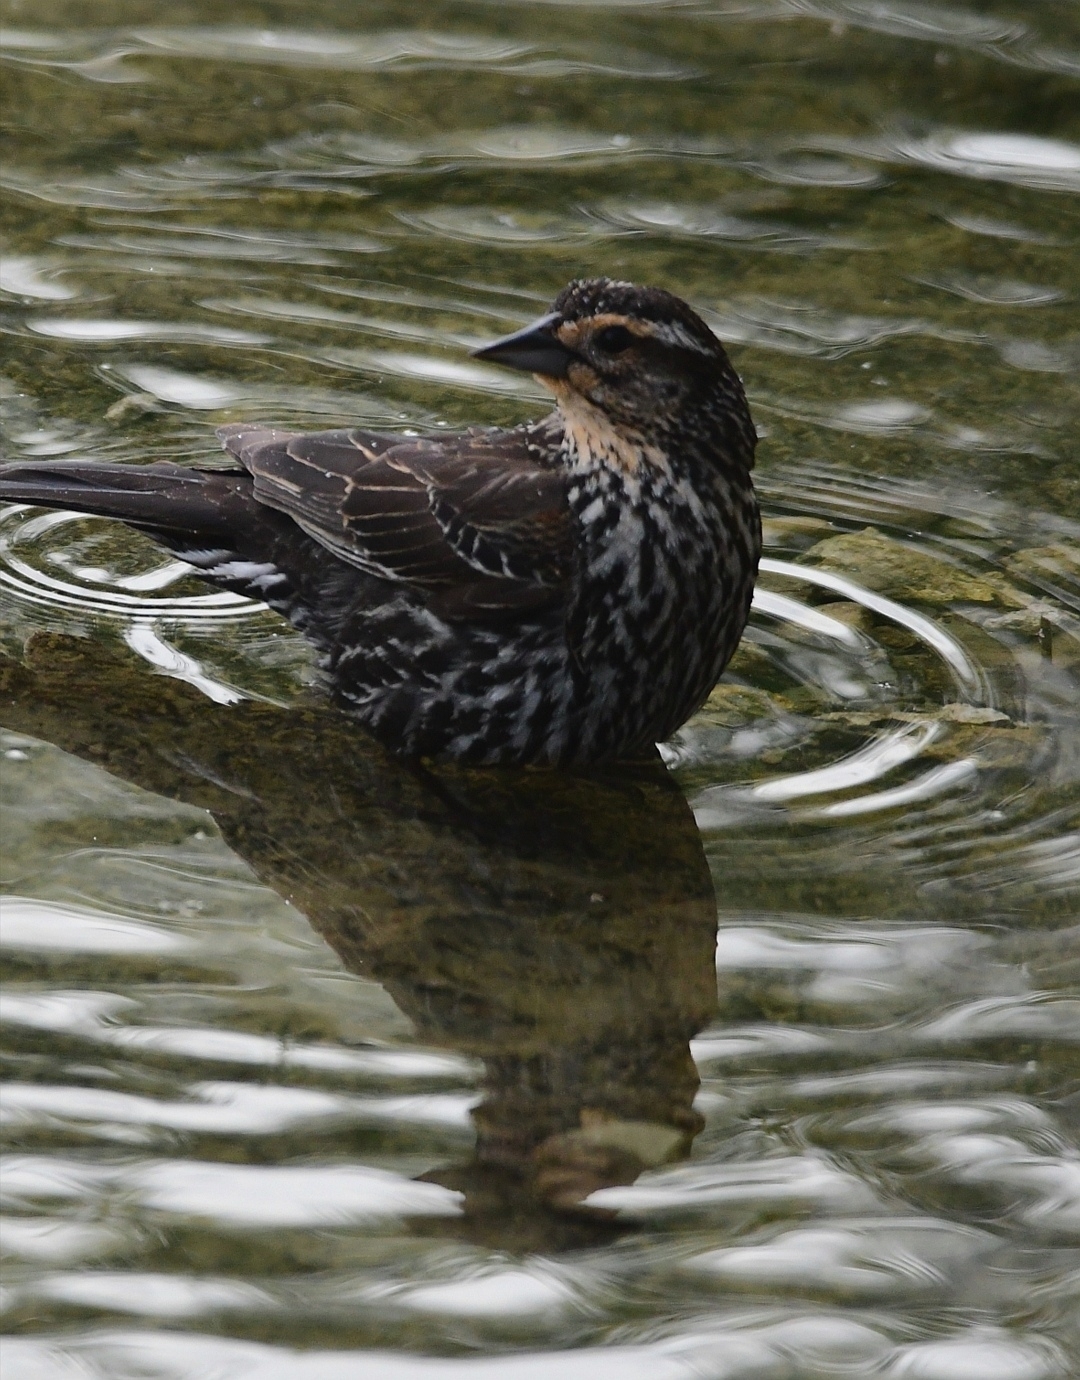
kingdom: Animalia
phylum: Chordata
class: Aves
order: Passeriformes
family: Icteridae
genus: Agelaius
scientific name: Agelaius phoeniceus
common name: Red-winged blackbird
